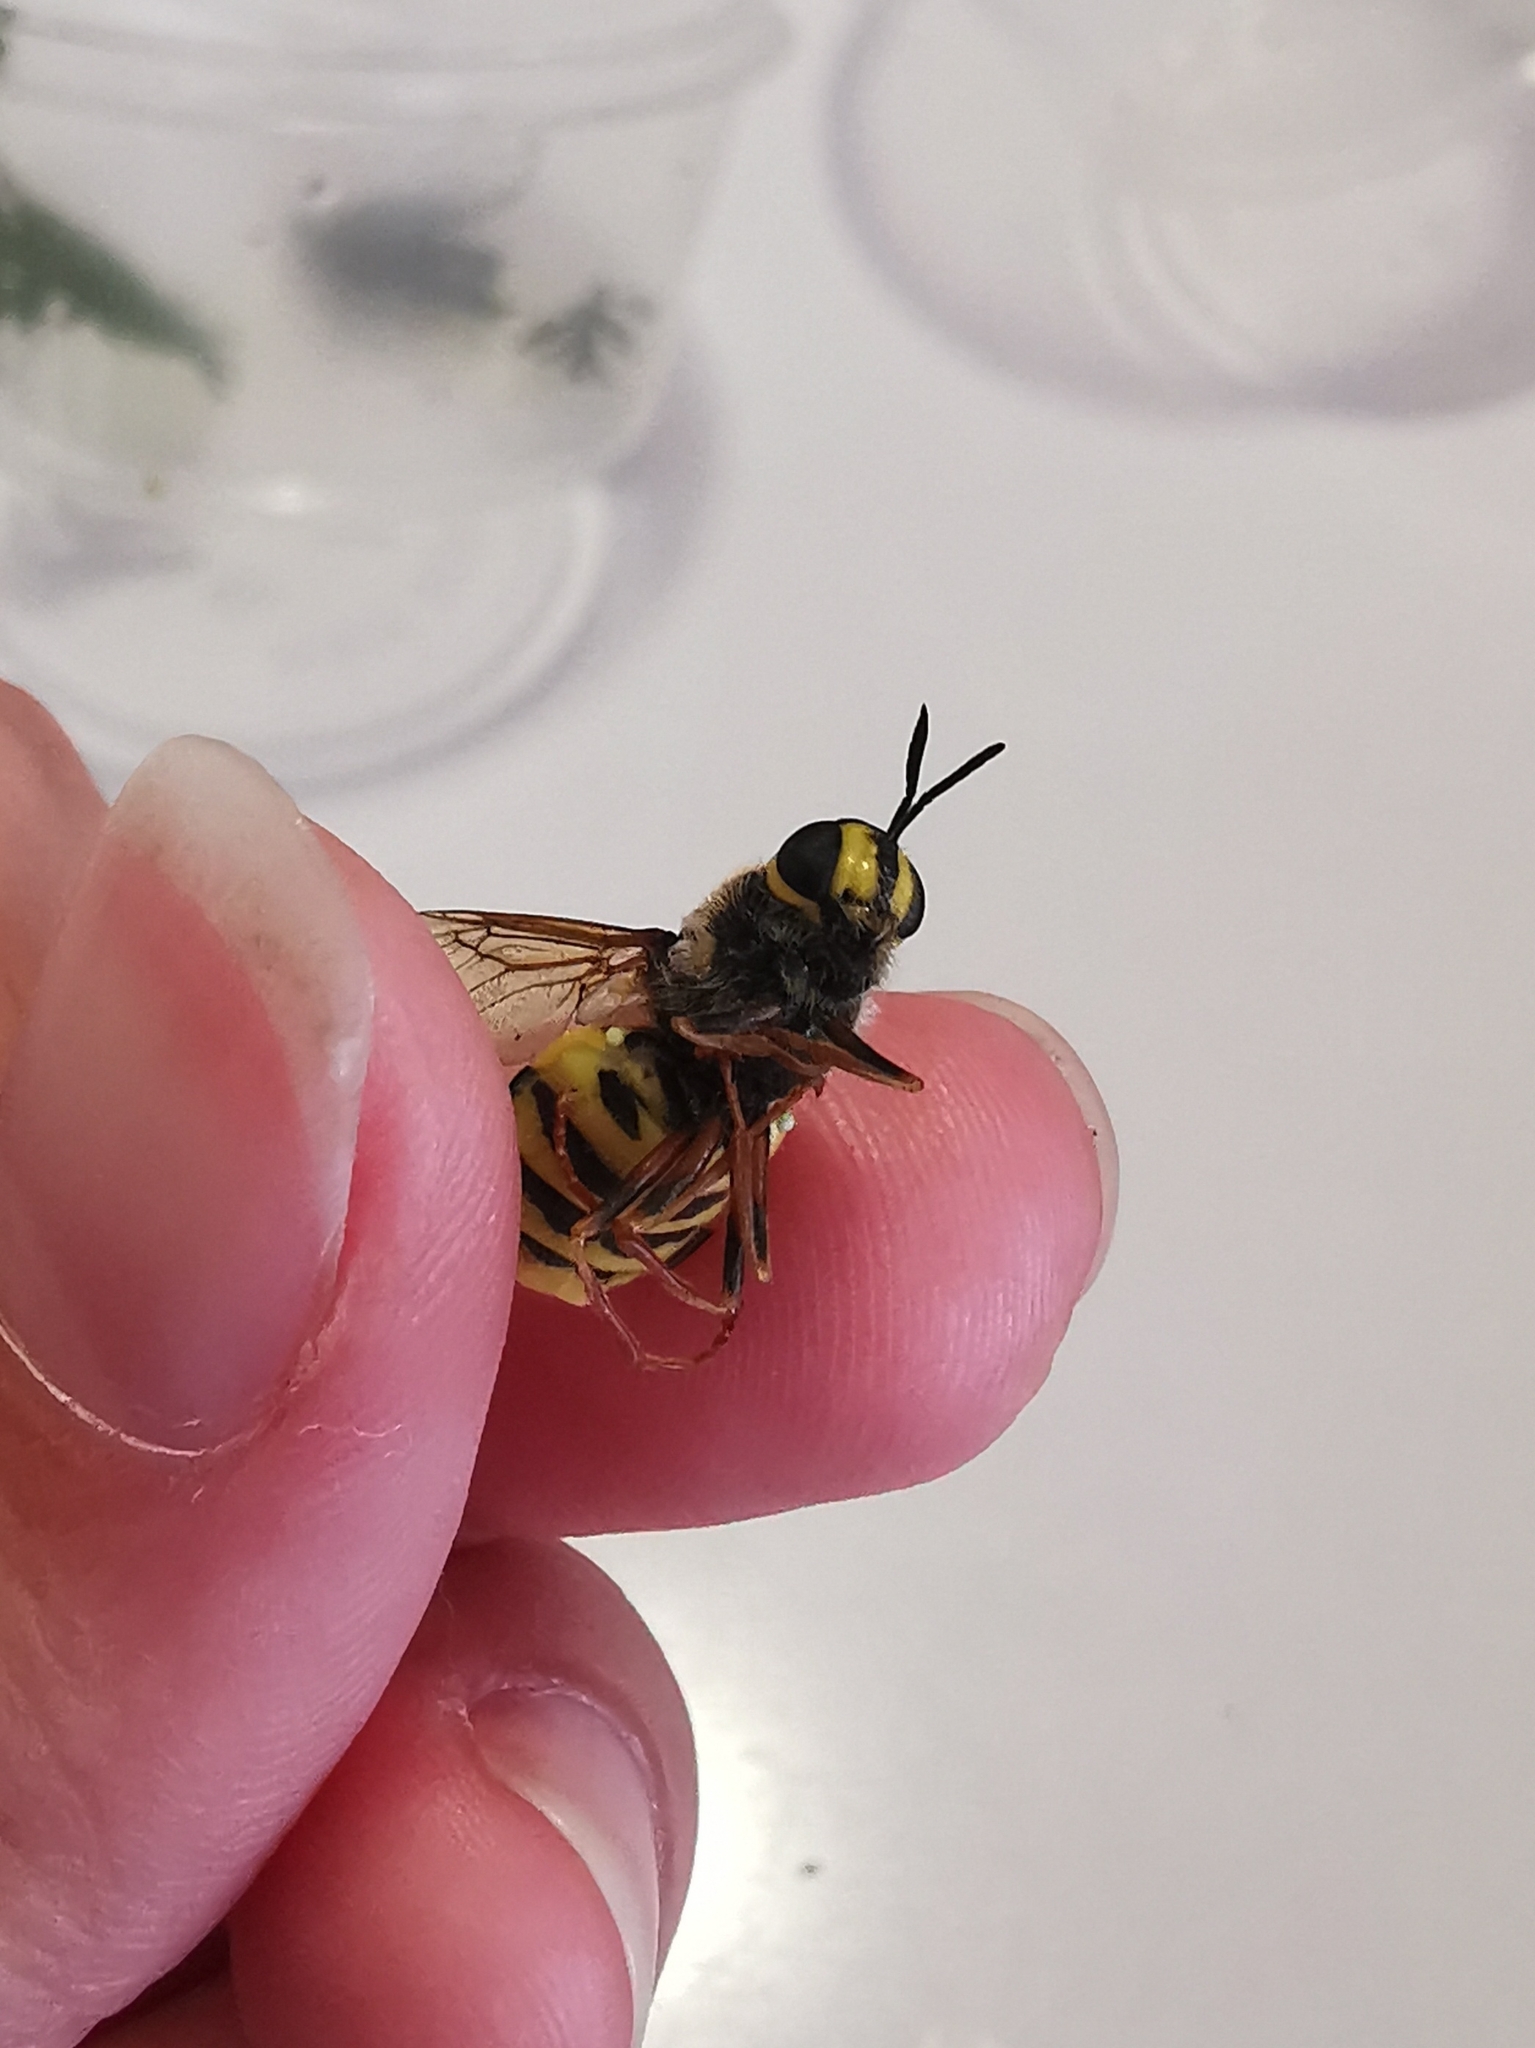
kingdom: Animalia
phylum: Arthropoda
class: Insecta
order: Diptera
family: Stratiomyidae
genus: Stratiomys
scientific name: Stratiomys chamaeleon
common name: Clubbed general
